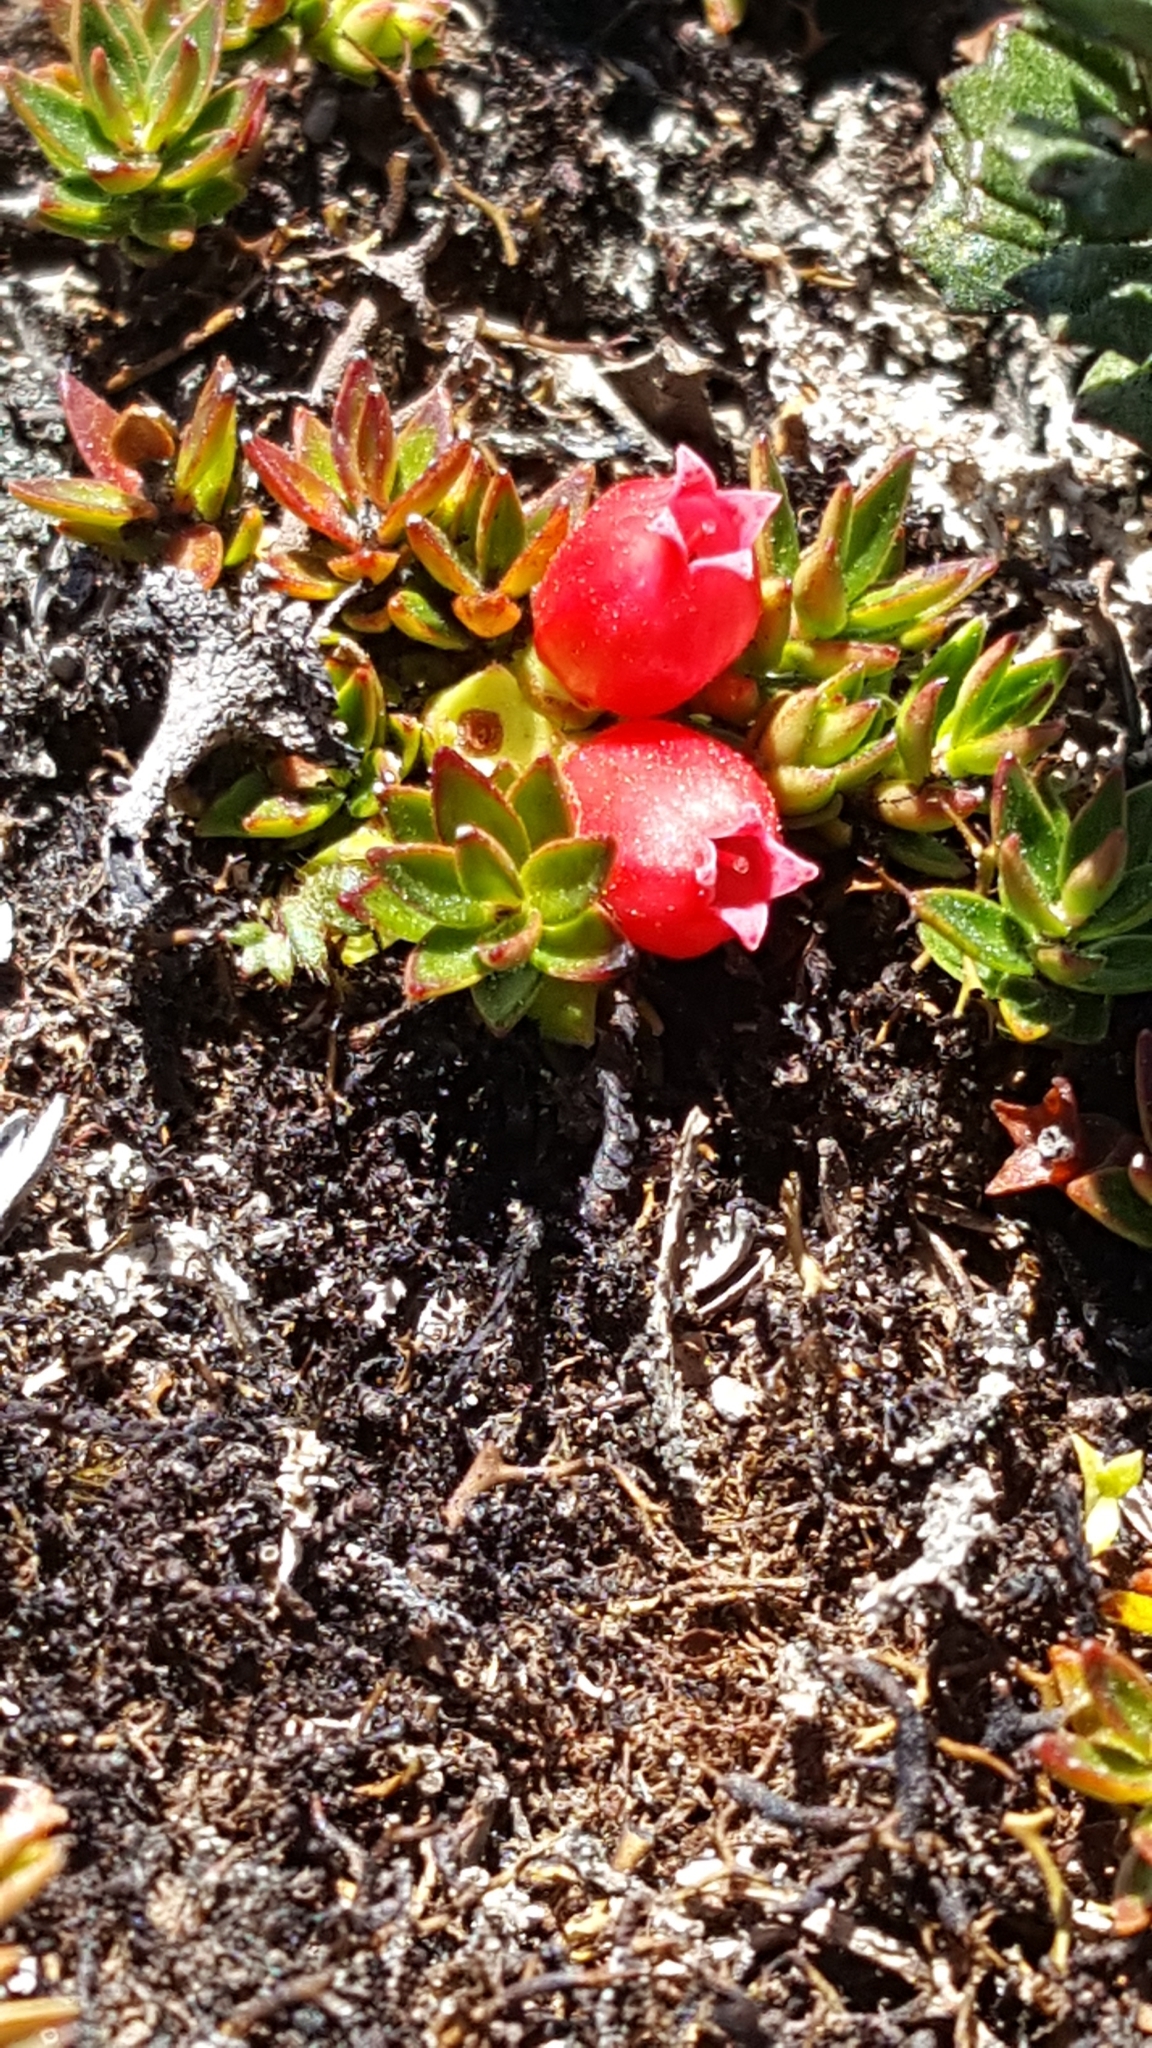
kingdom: Plantae
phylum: Tracheophyta
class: Magnoliopsida
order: Ericales
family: Ericaceae
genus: Disterigma
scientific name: Disterigma empetrifolium
